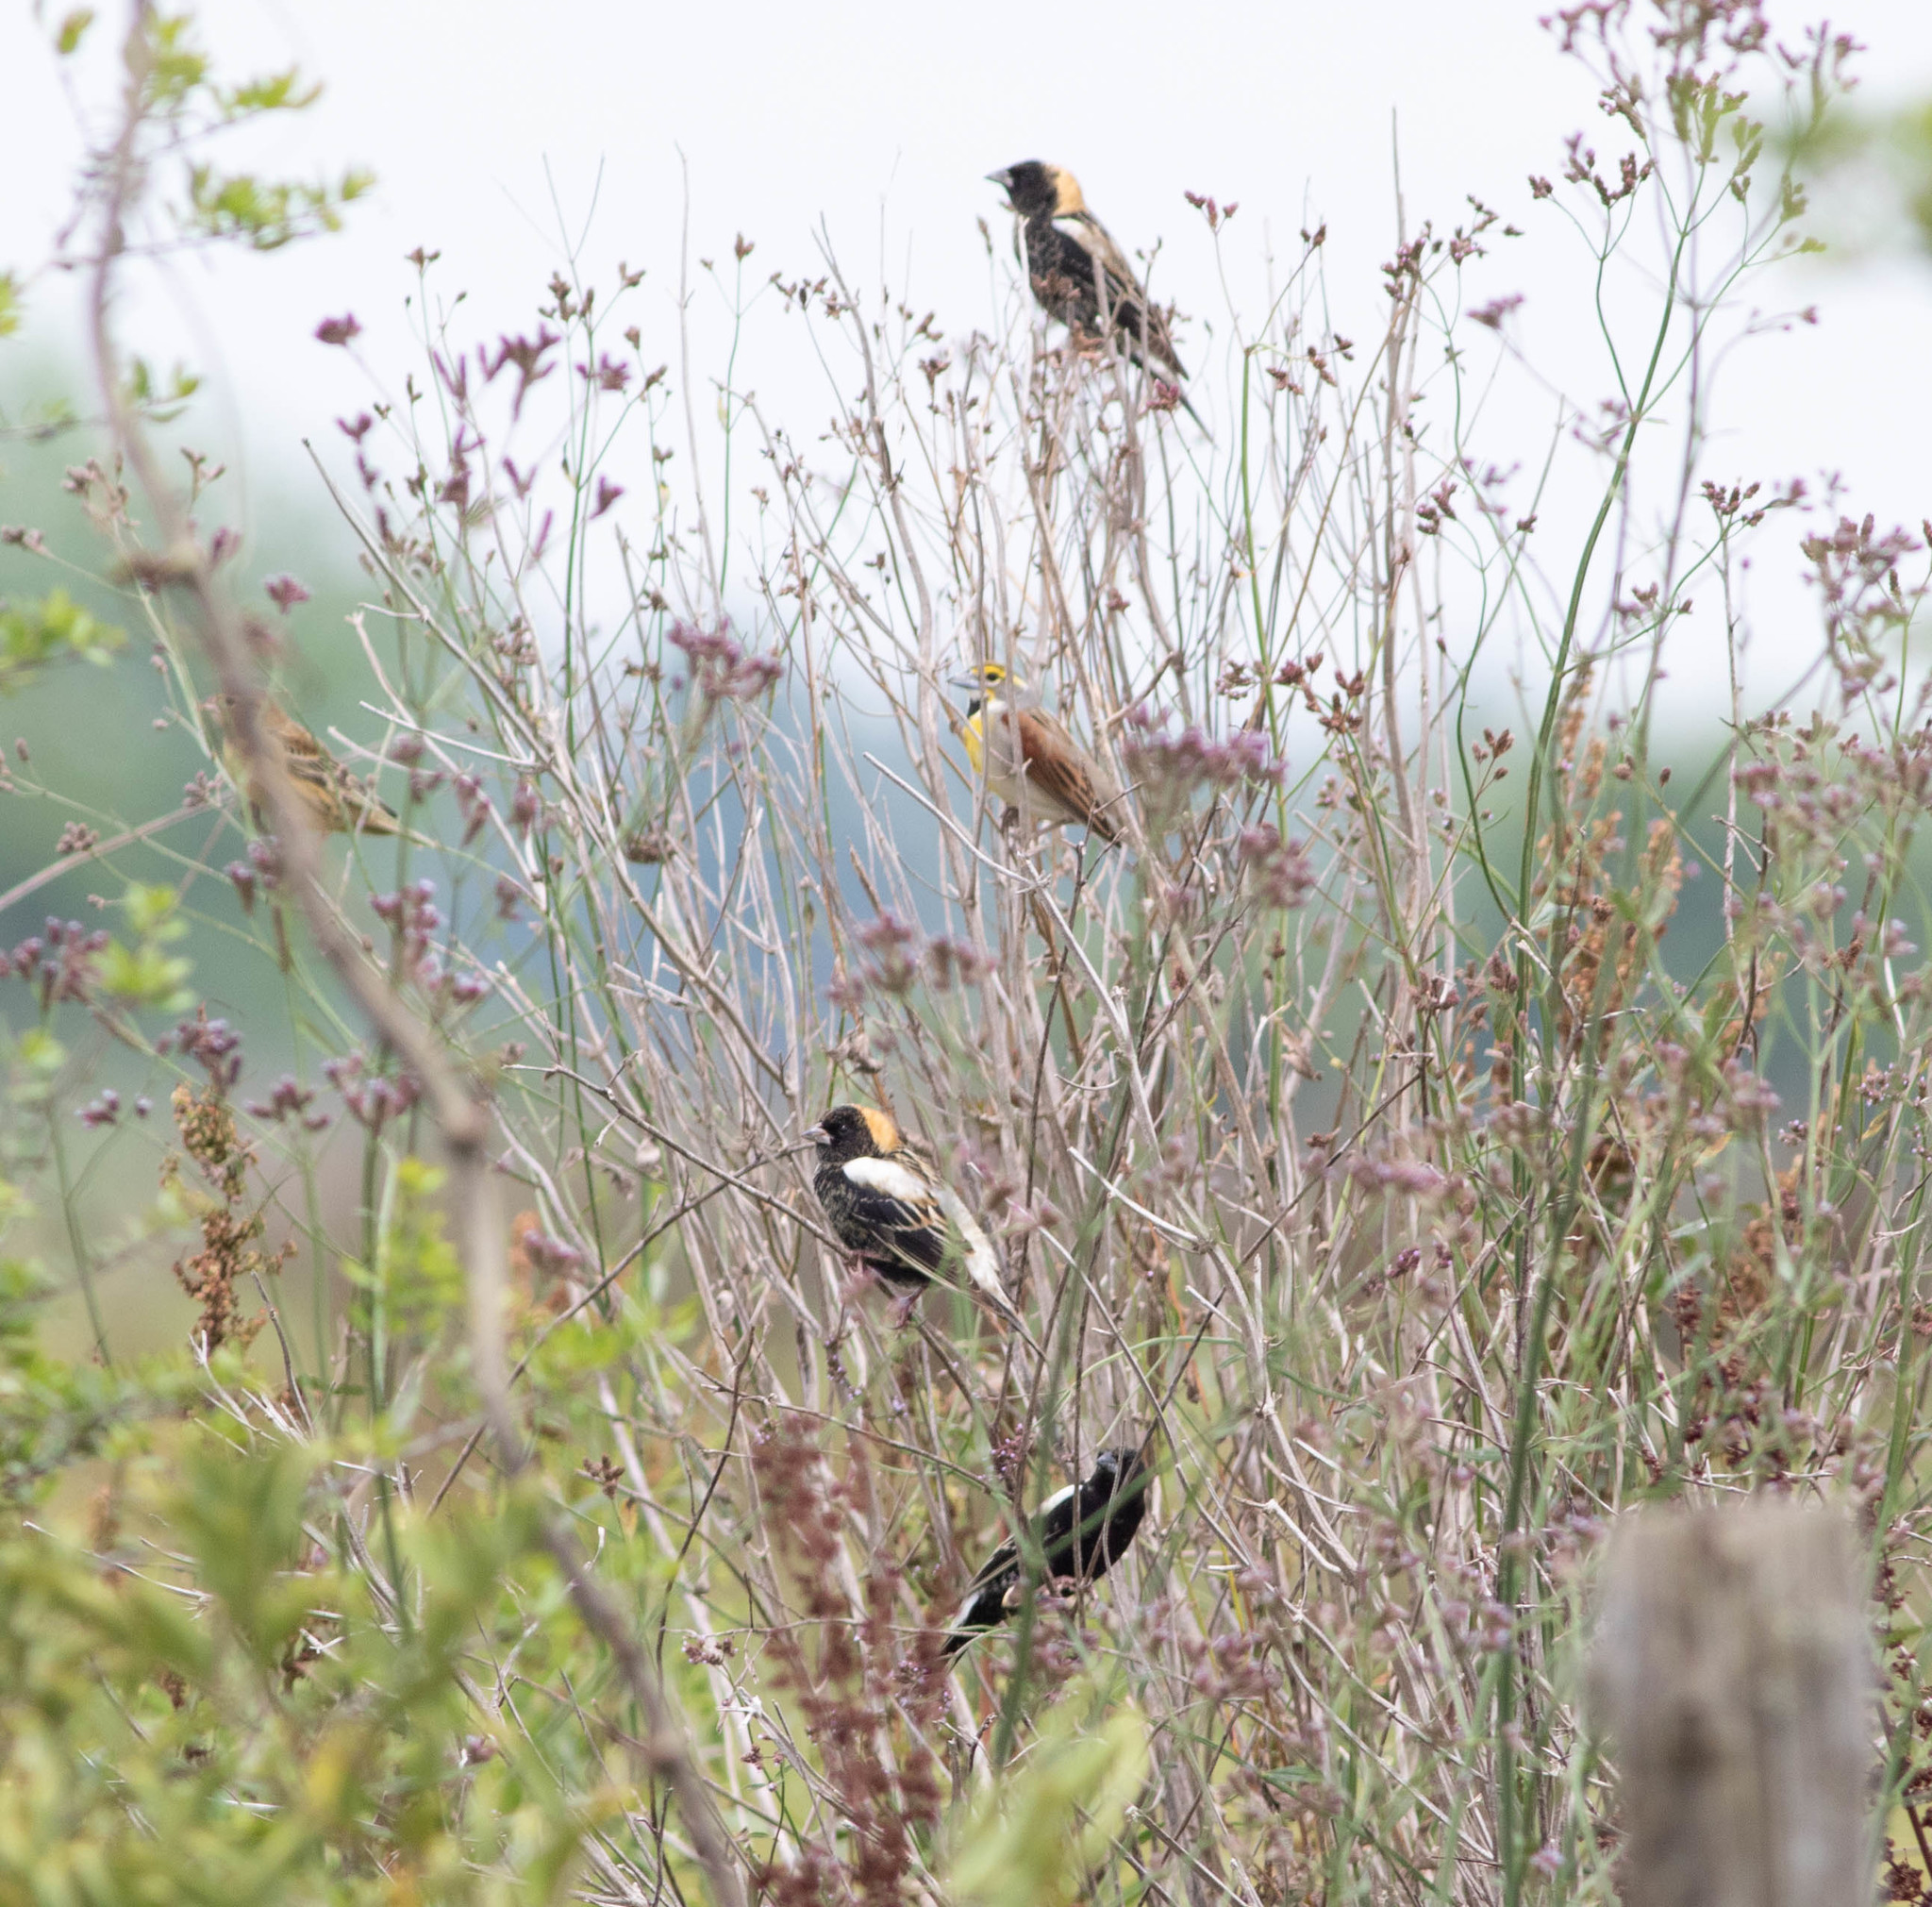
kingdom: Animalia
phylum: Chordata
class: Aves
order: Passeriformes
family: Icteridae
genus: Dolichonyx
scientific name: Dolichonyx oryzivorus
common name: Bobolink
